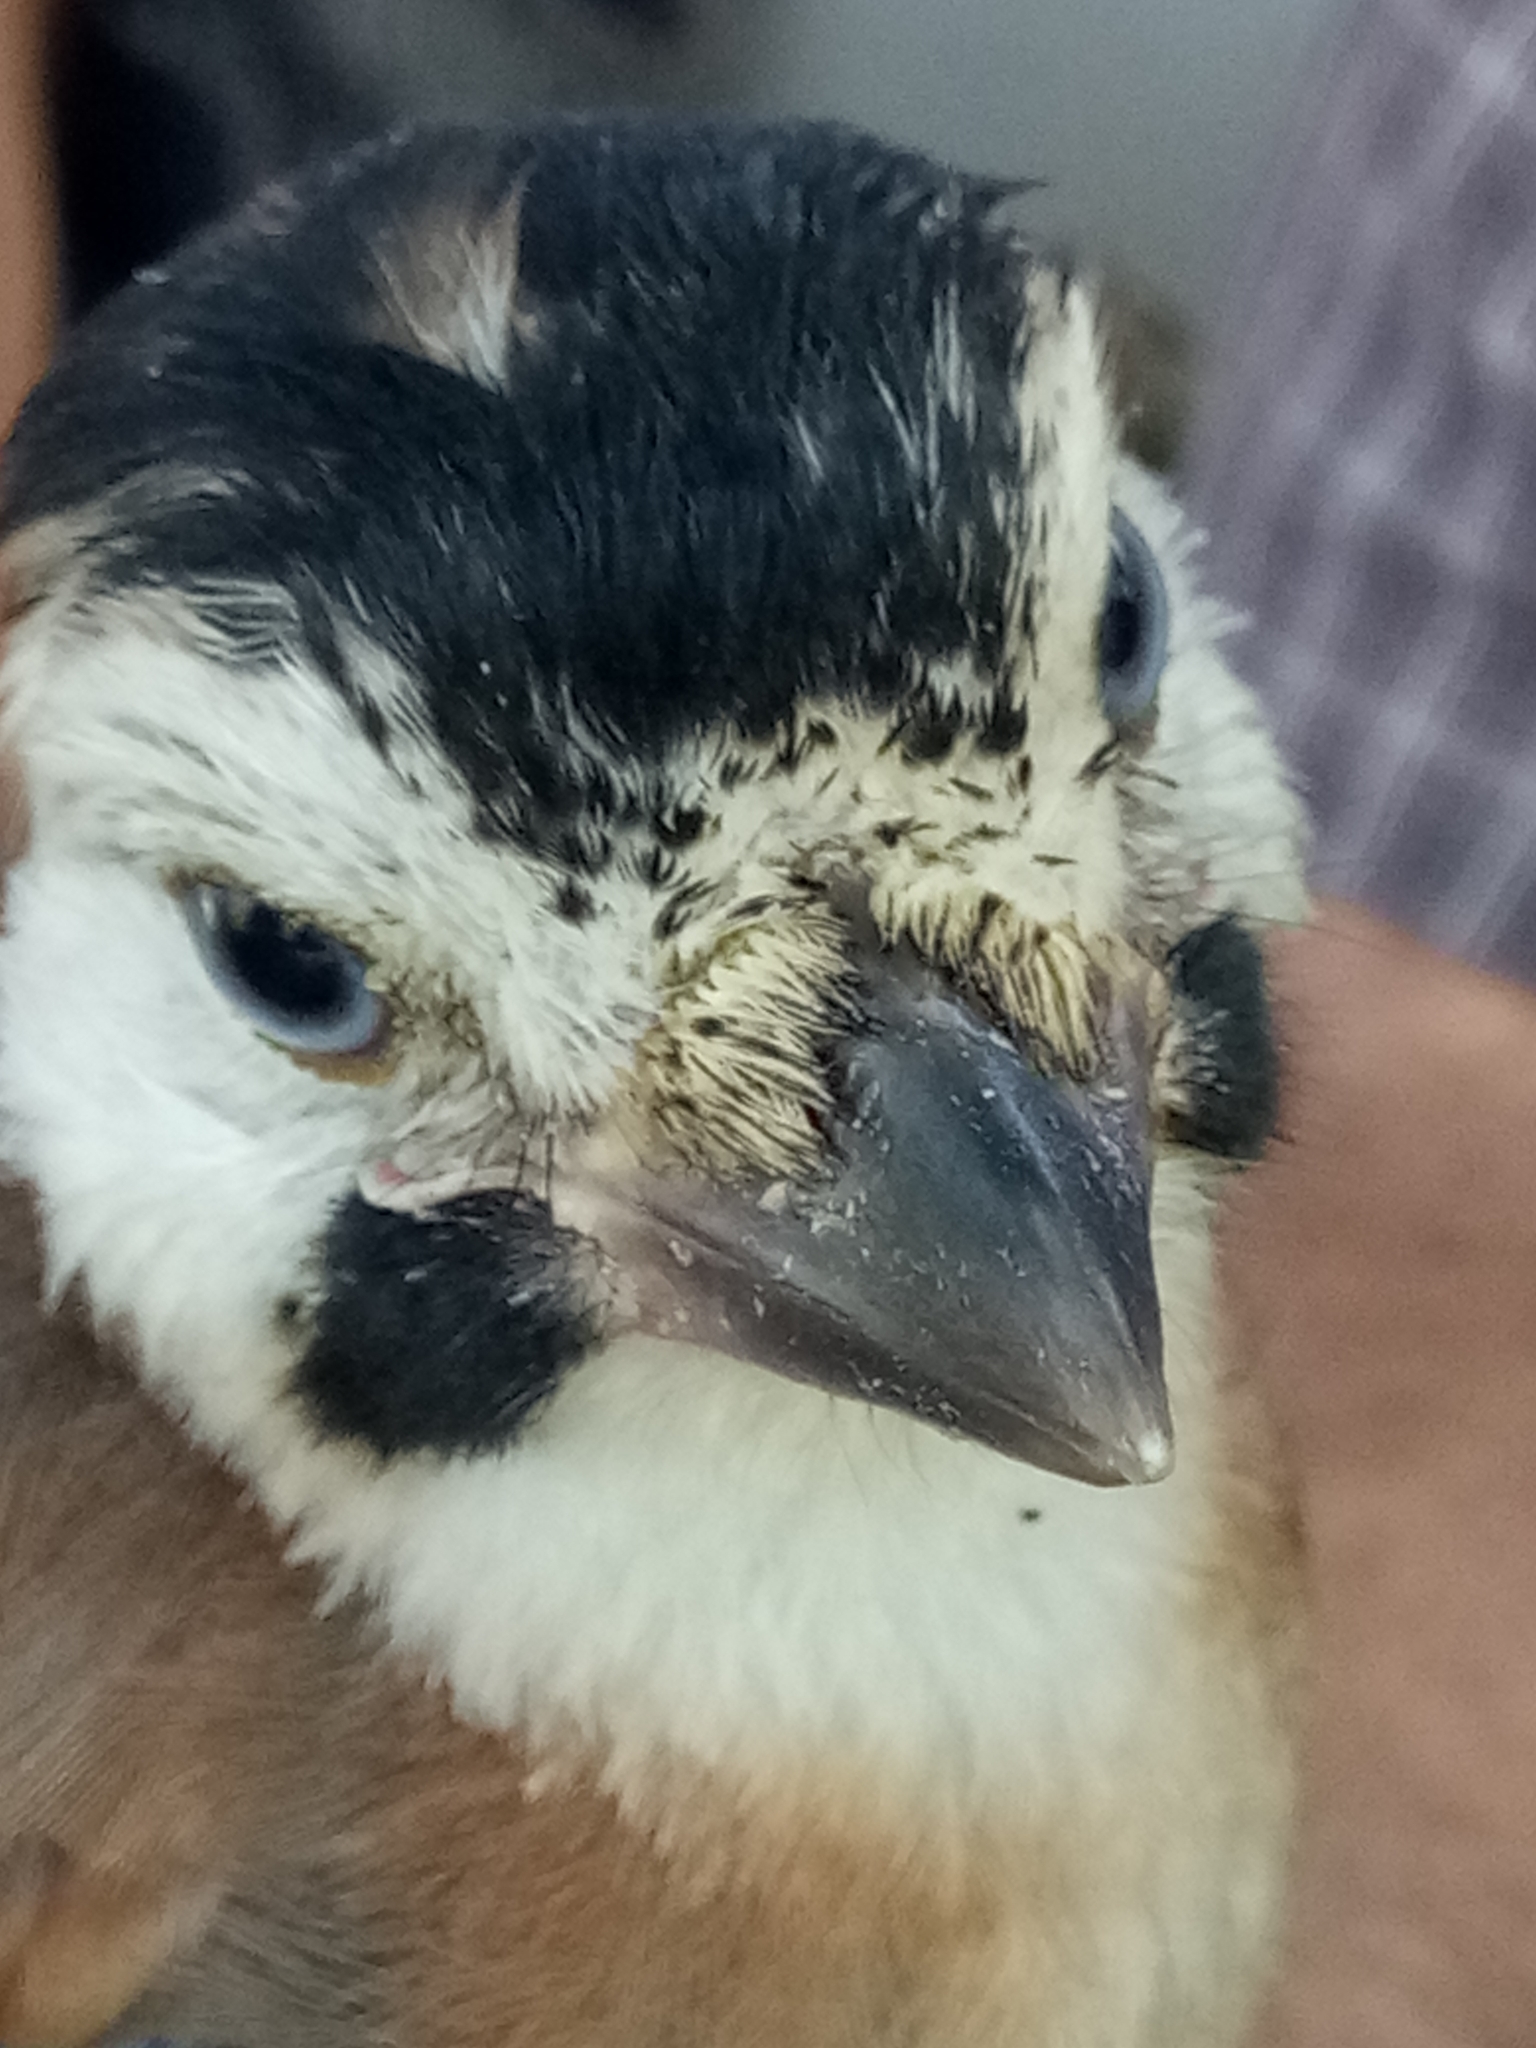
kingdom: Animalia
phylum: Chordata
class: Aves
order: Passeriformes
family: Corvidae
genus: Garrulus
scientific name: Garrulus glandarius
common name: Eurasian jay
